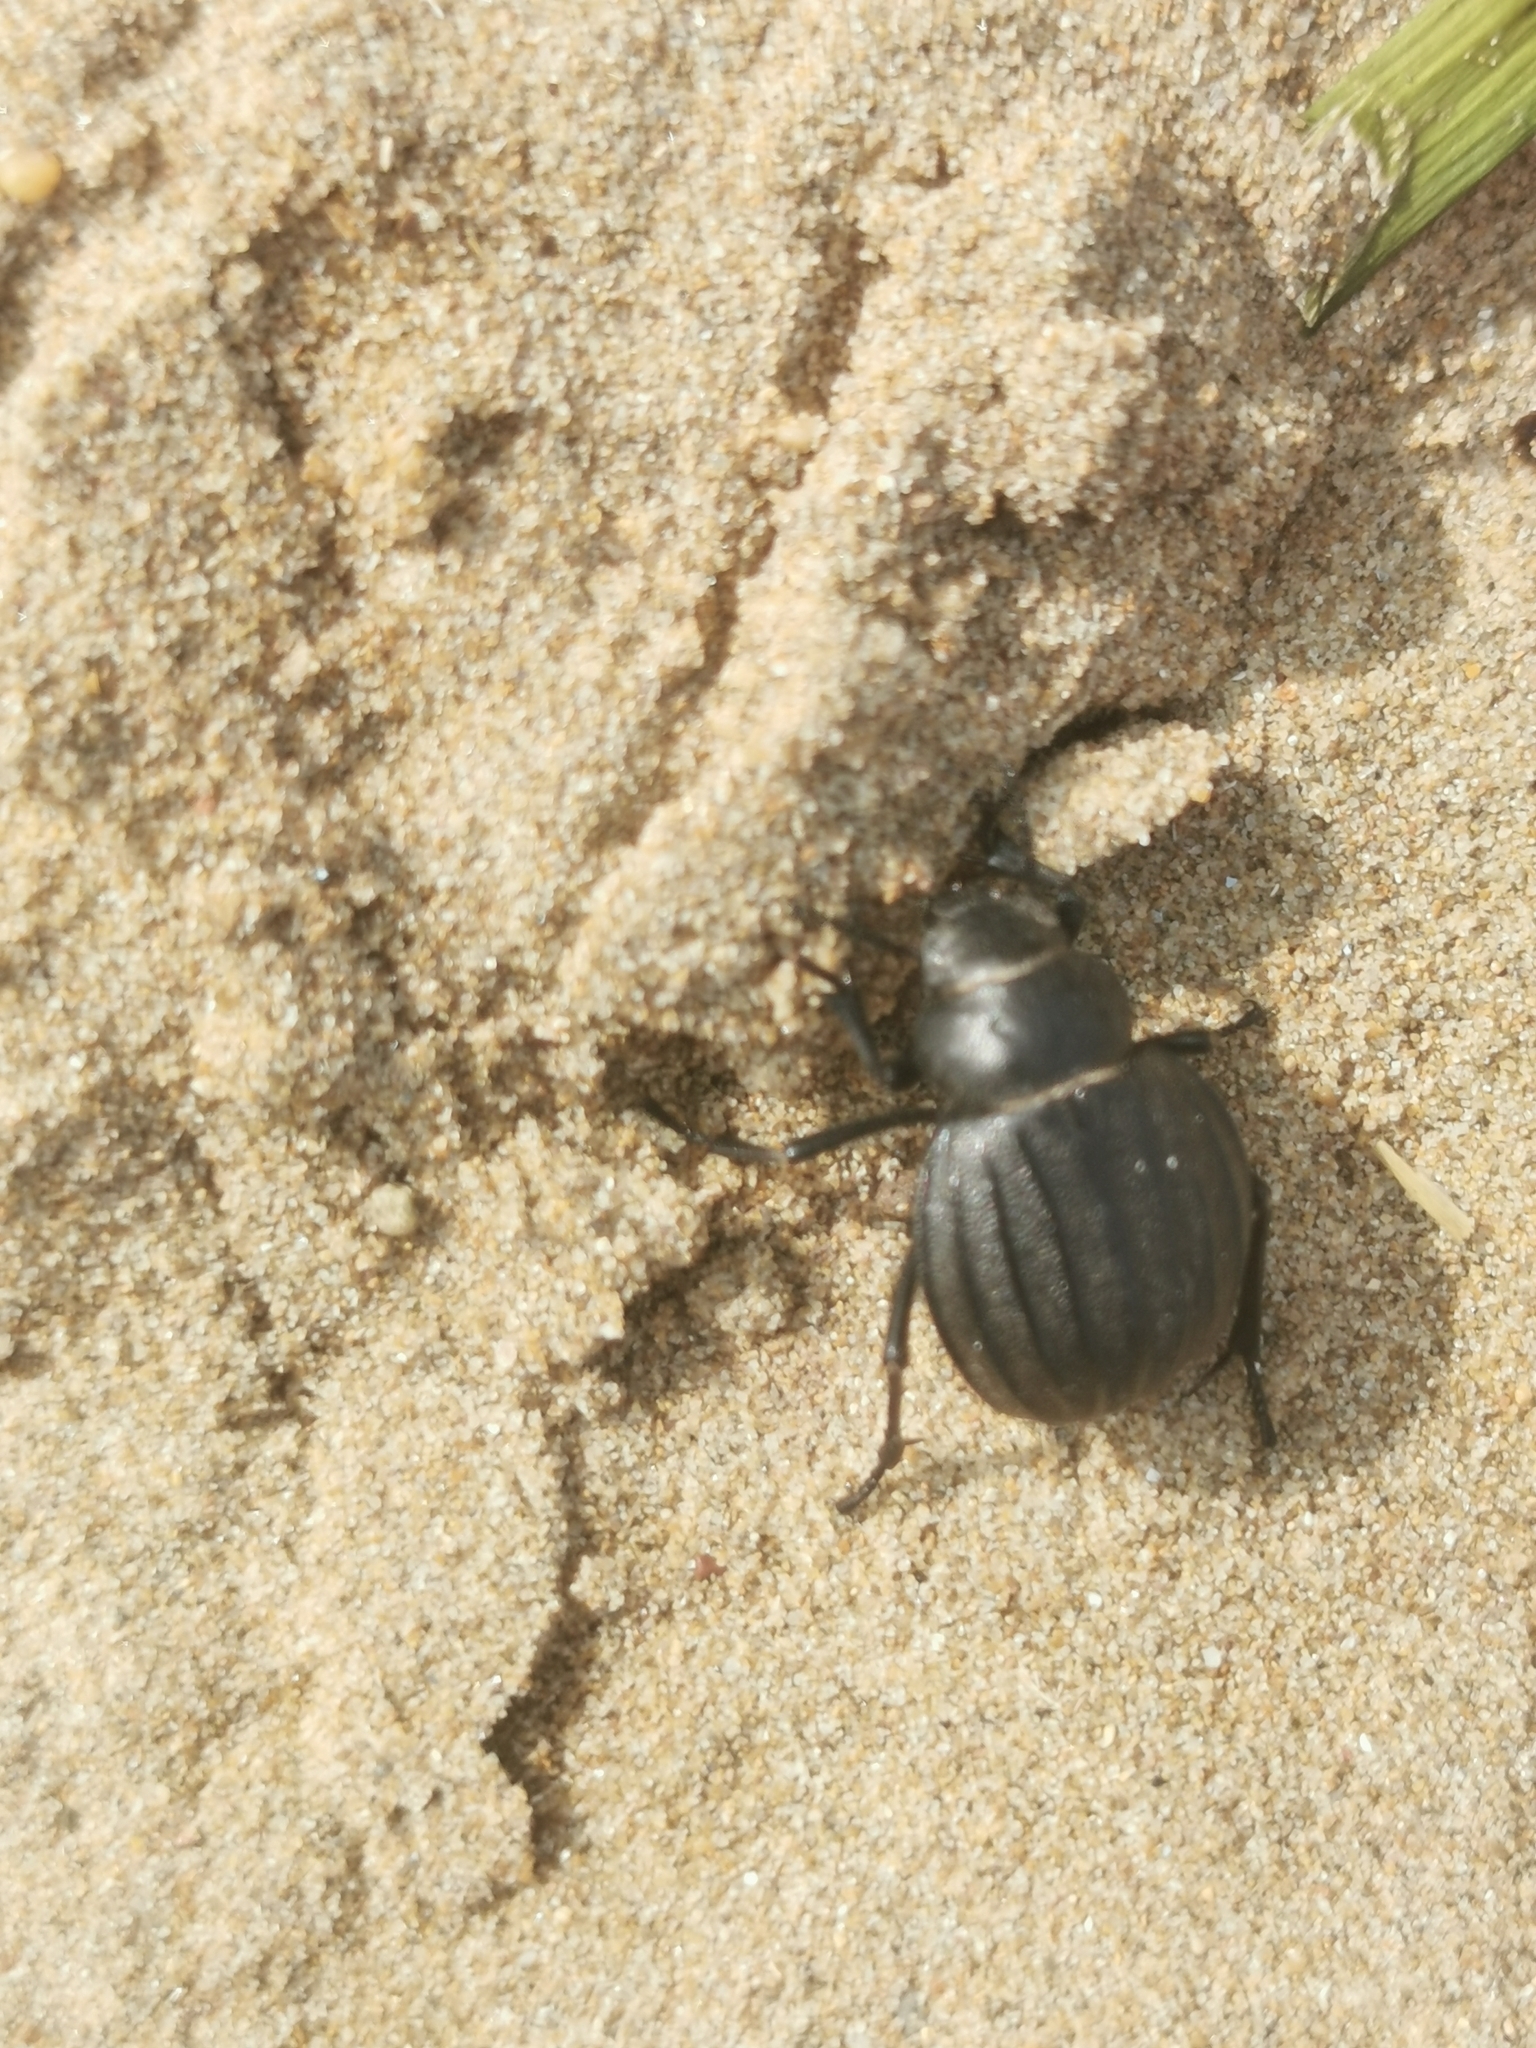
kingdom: Animalia
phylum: Arthropoda
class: Insecta
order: Coleoptera
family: Tenebrionidae
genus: Pimelia
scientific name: Pimelia bipunctata
